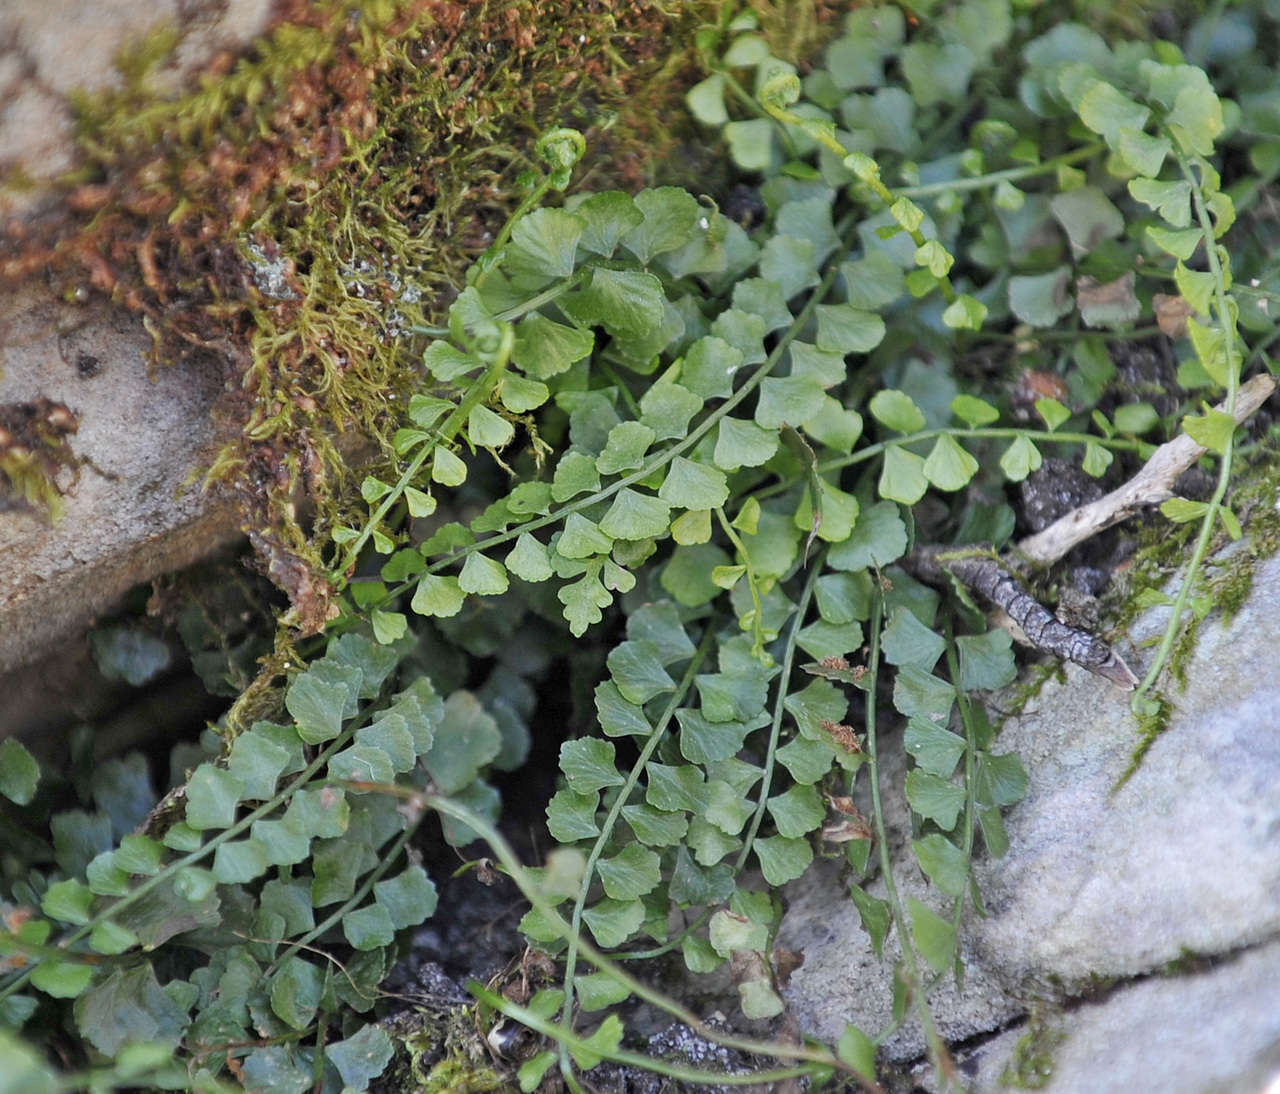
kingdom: Plantae
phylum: Tracheophyta
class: Polypodiopsida
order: Polypodiales
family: Aspleniaceae
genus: Asplenium
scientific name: Asplenium flabellifolium
